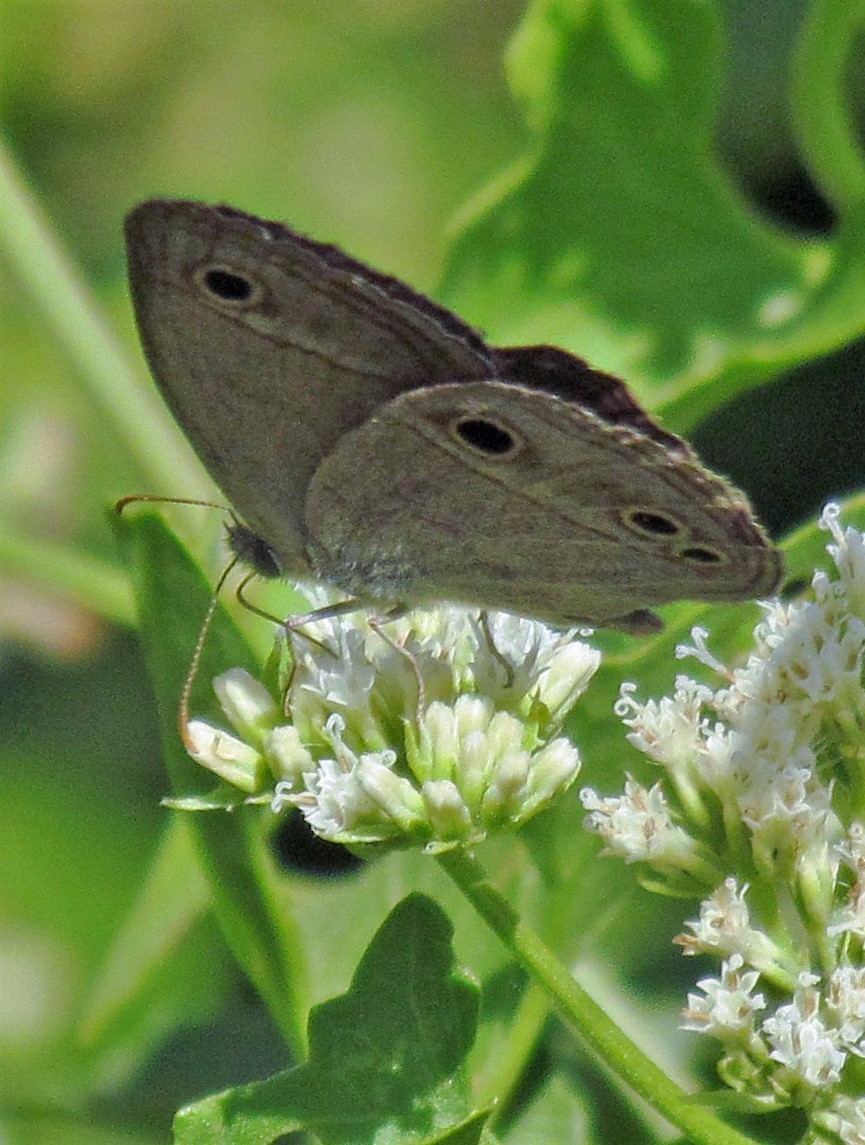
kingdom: Animalia
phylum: Arthropoda
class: Insecta
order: Lepidoptera
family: Nymphalidae
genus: Stegosatyrus
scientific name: Stegosatyrus periphas
